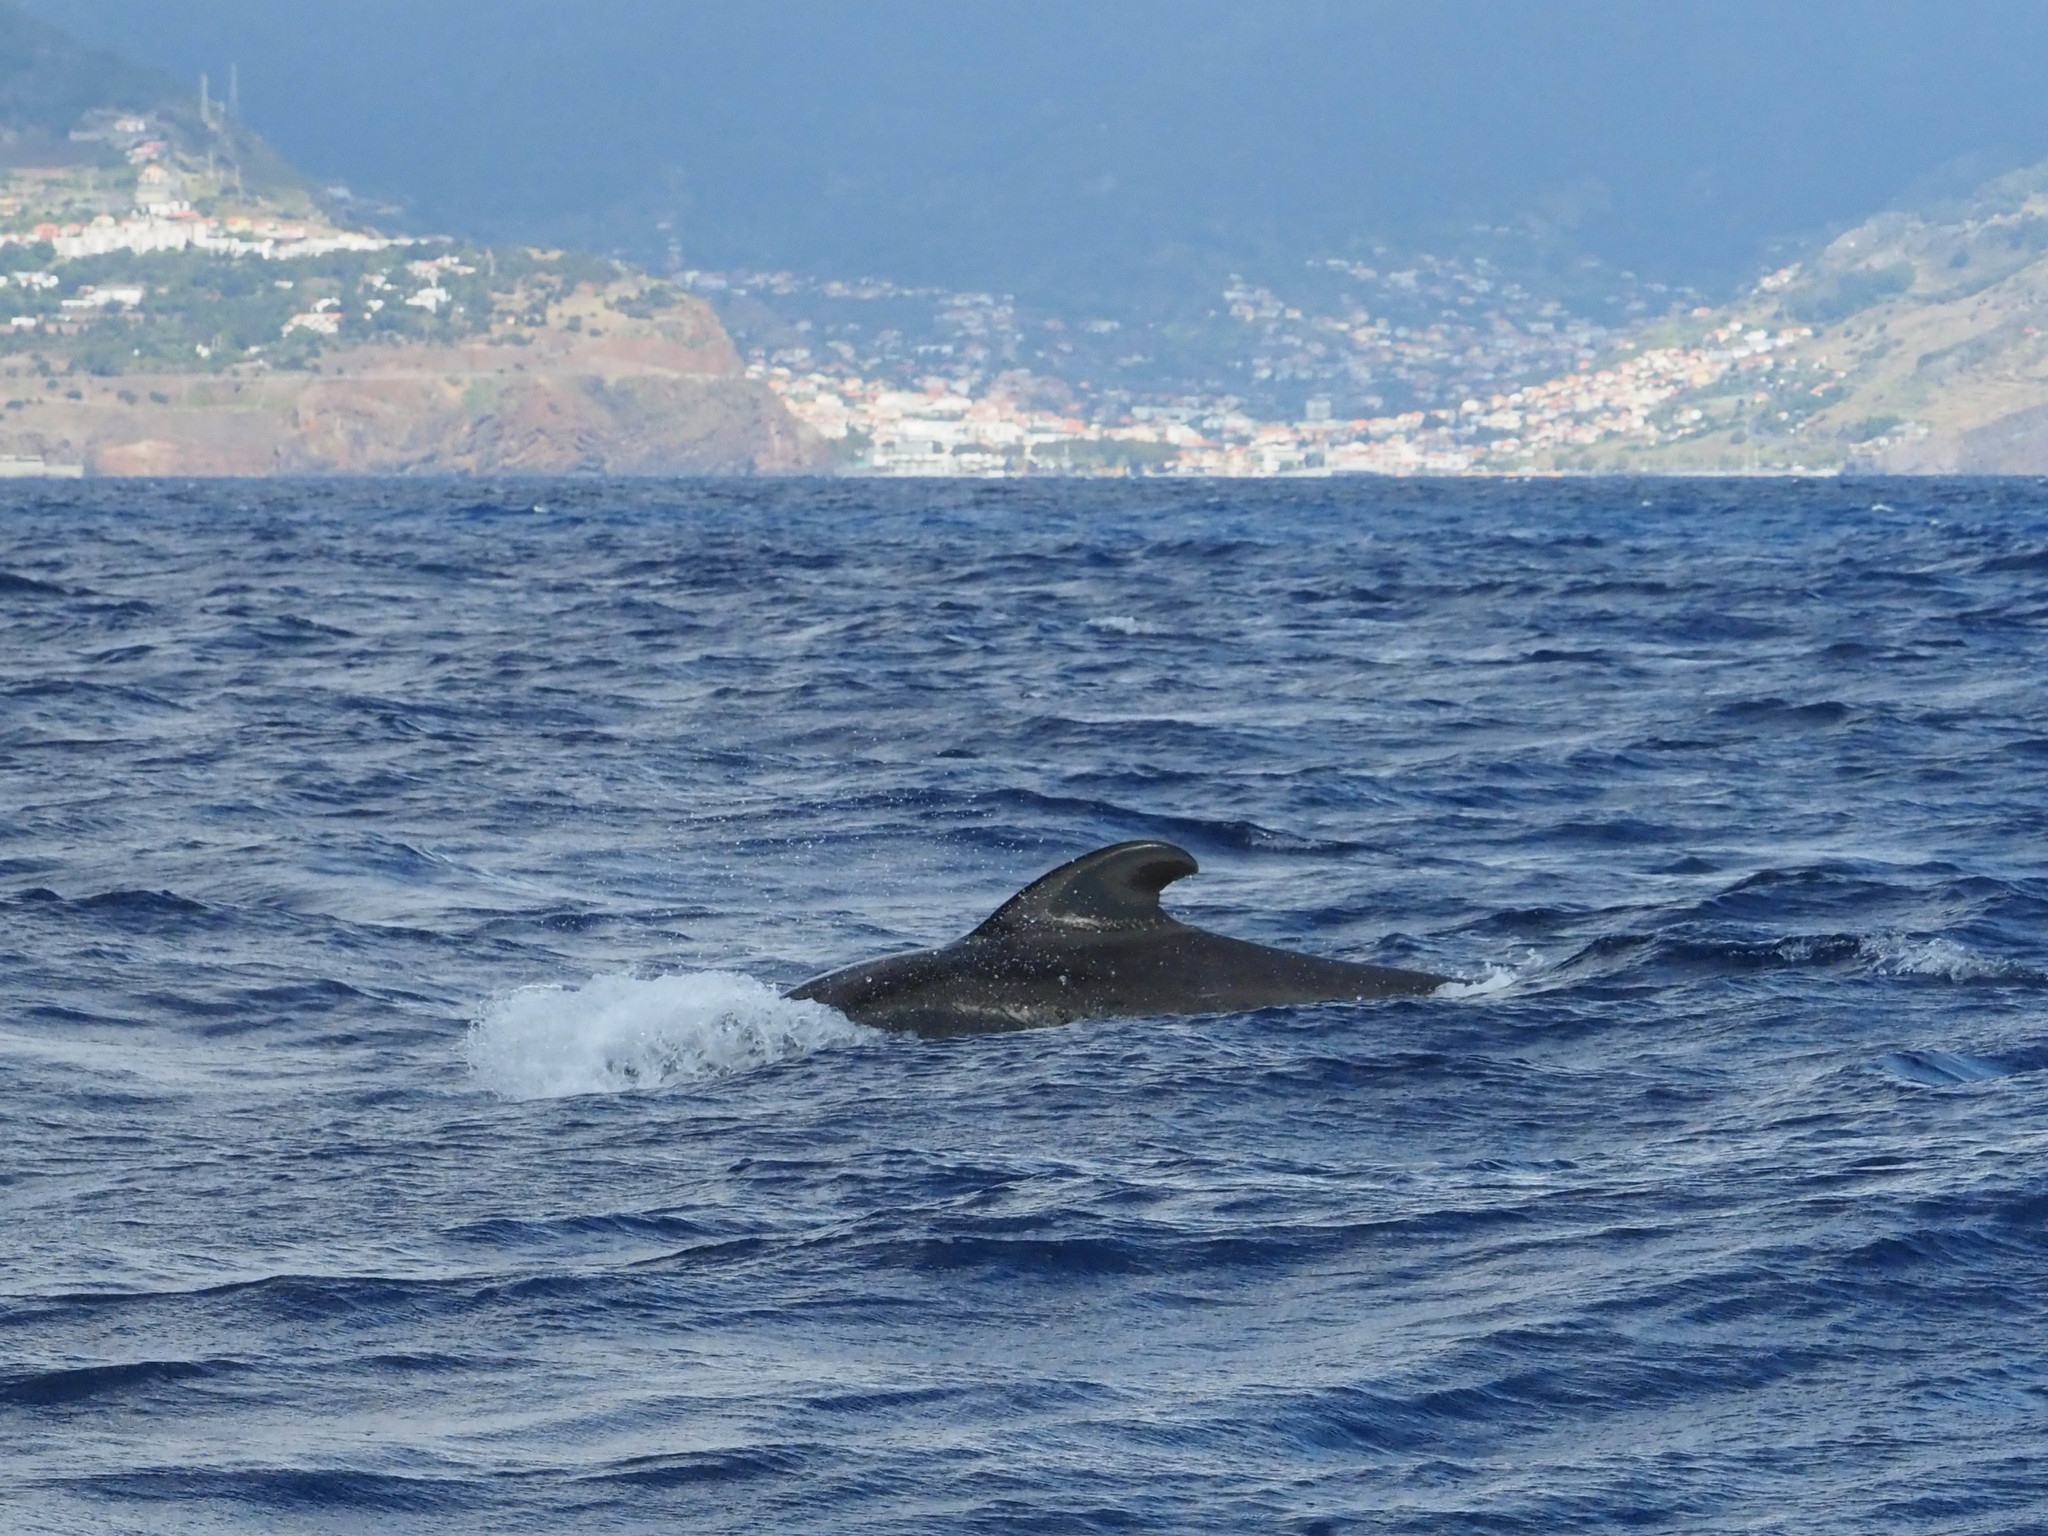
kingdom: Animalia
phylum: Chordata
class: Mammalia
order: Cetacea
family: Delphinidae
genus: Globicephala
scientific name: Globicephala macrorhynchus
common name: Short-finned pilot whale
